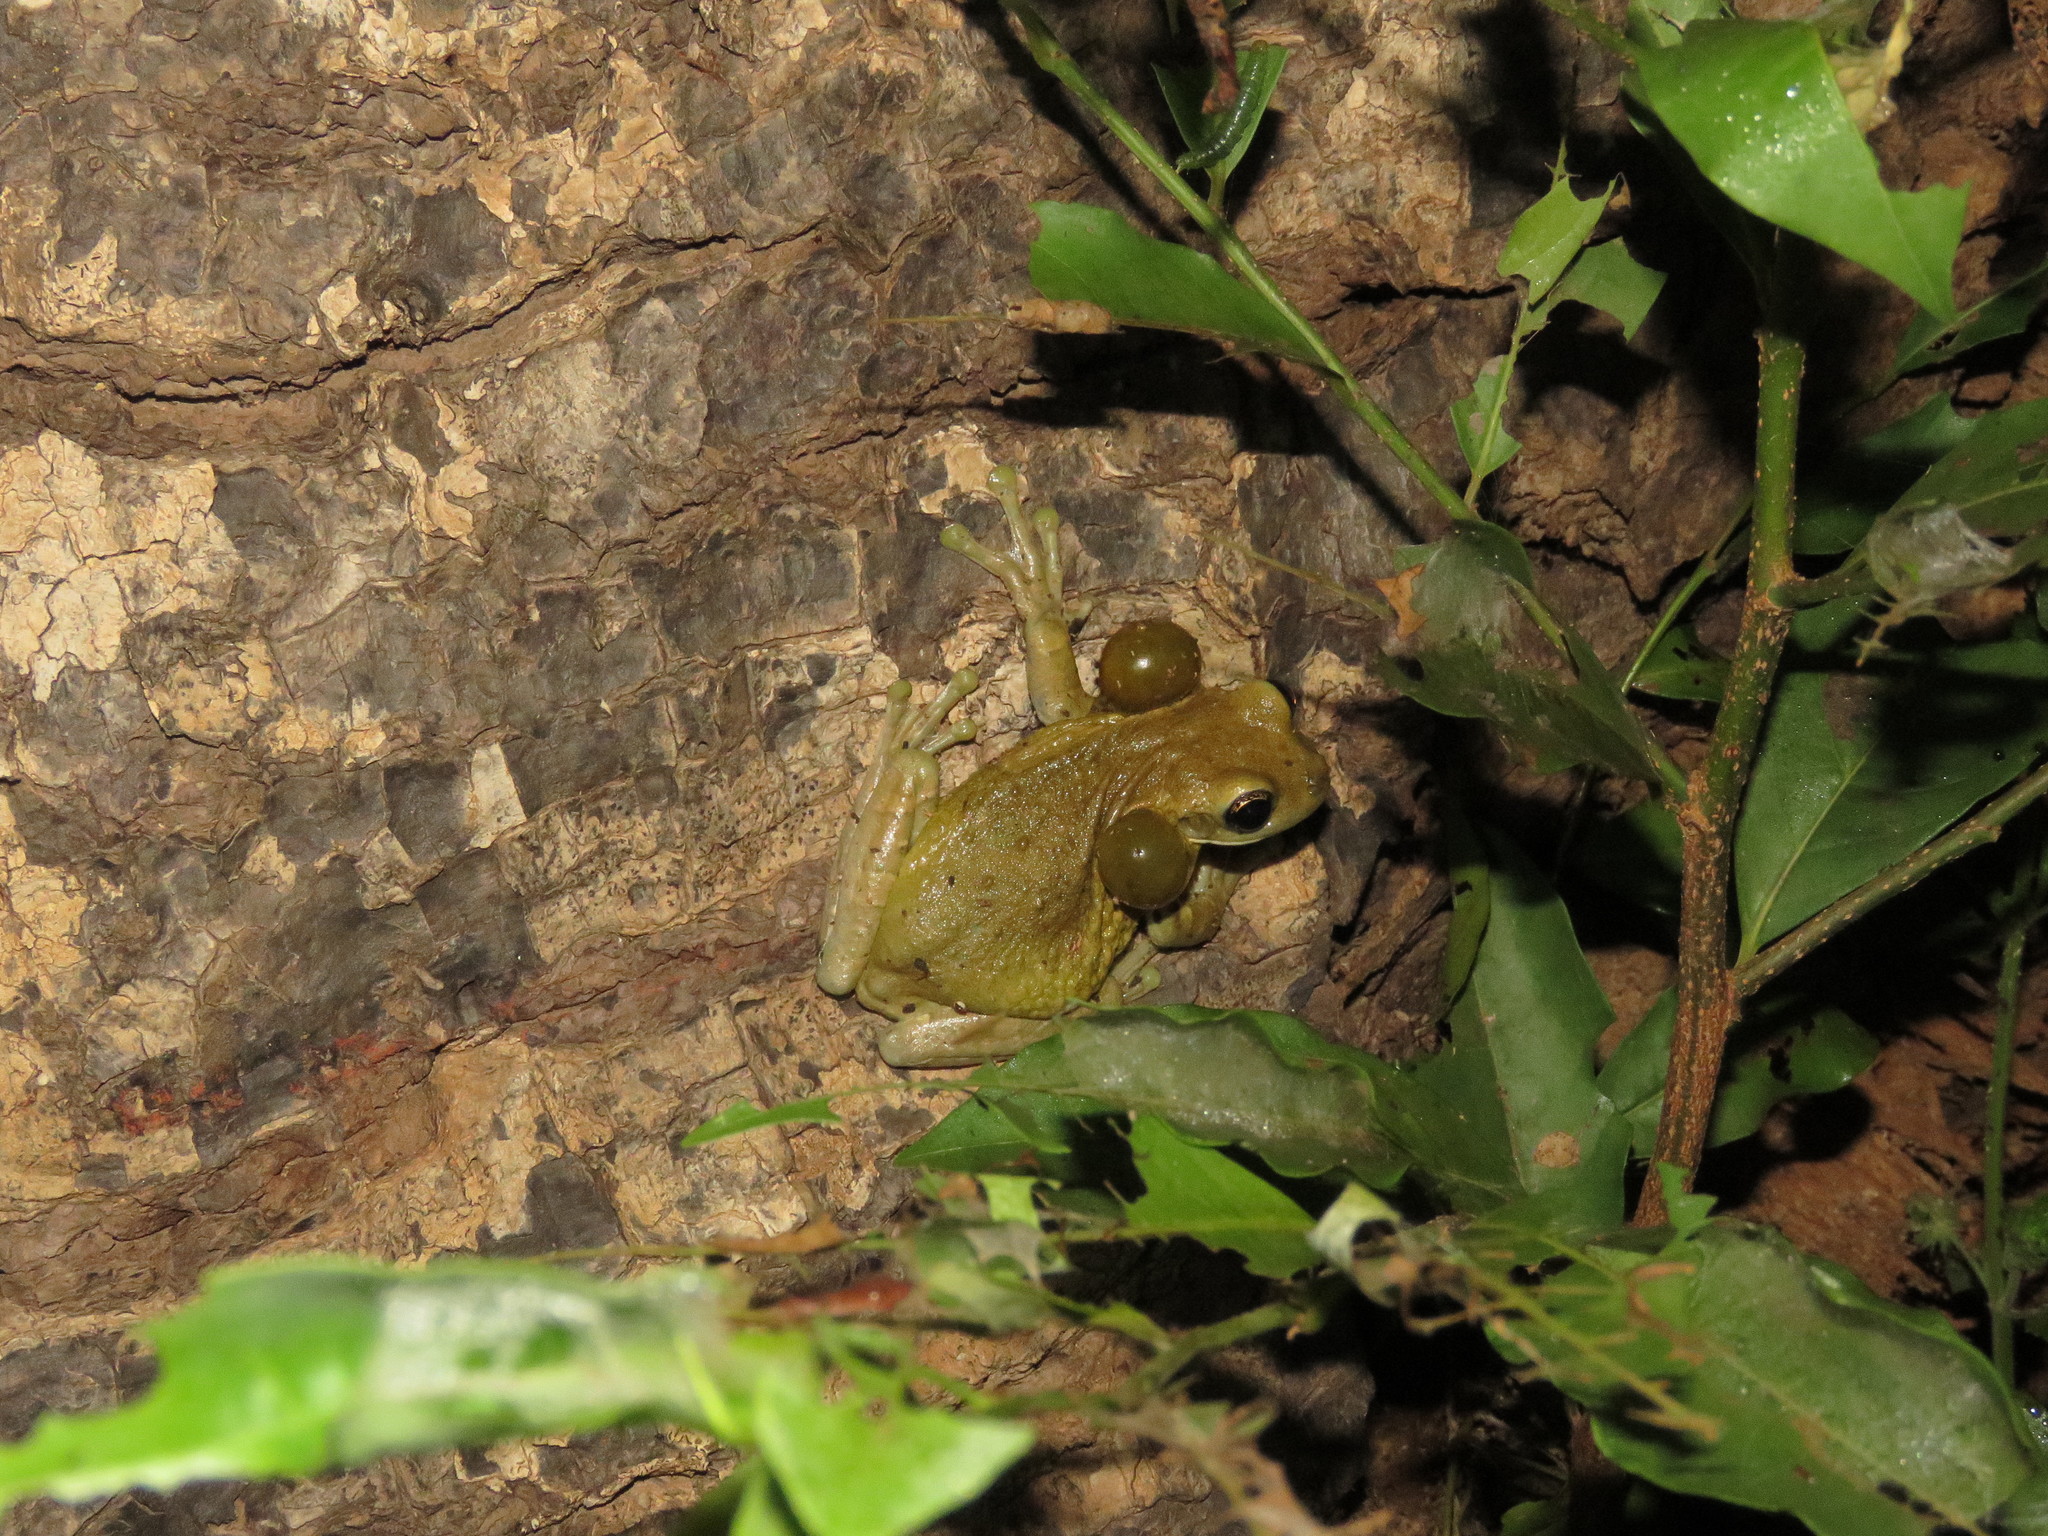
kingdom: Animalia
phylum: Chordata
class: Amphibia
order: Anura
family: Hylidae
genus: Trachycephalus
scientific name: Trachycephalus coriaceus
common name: Surinam casque-heded treefrog
